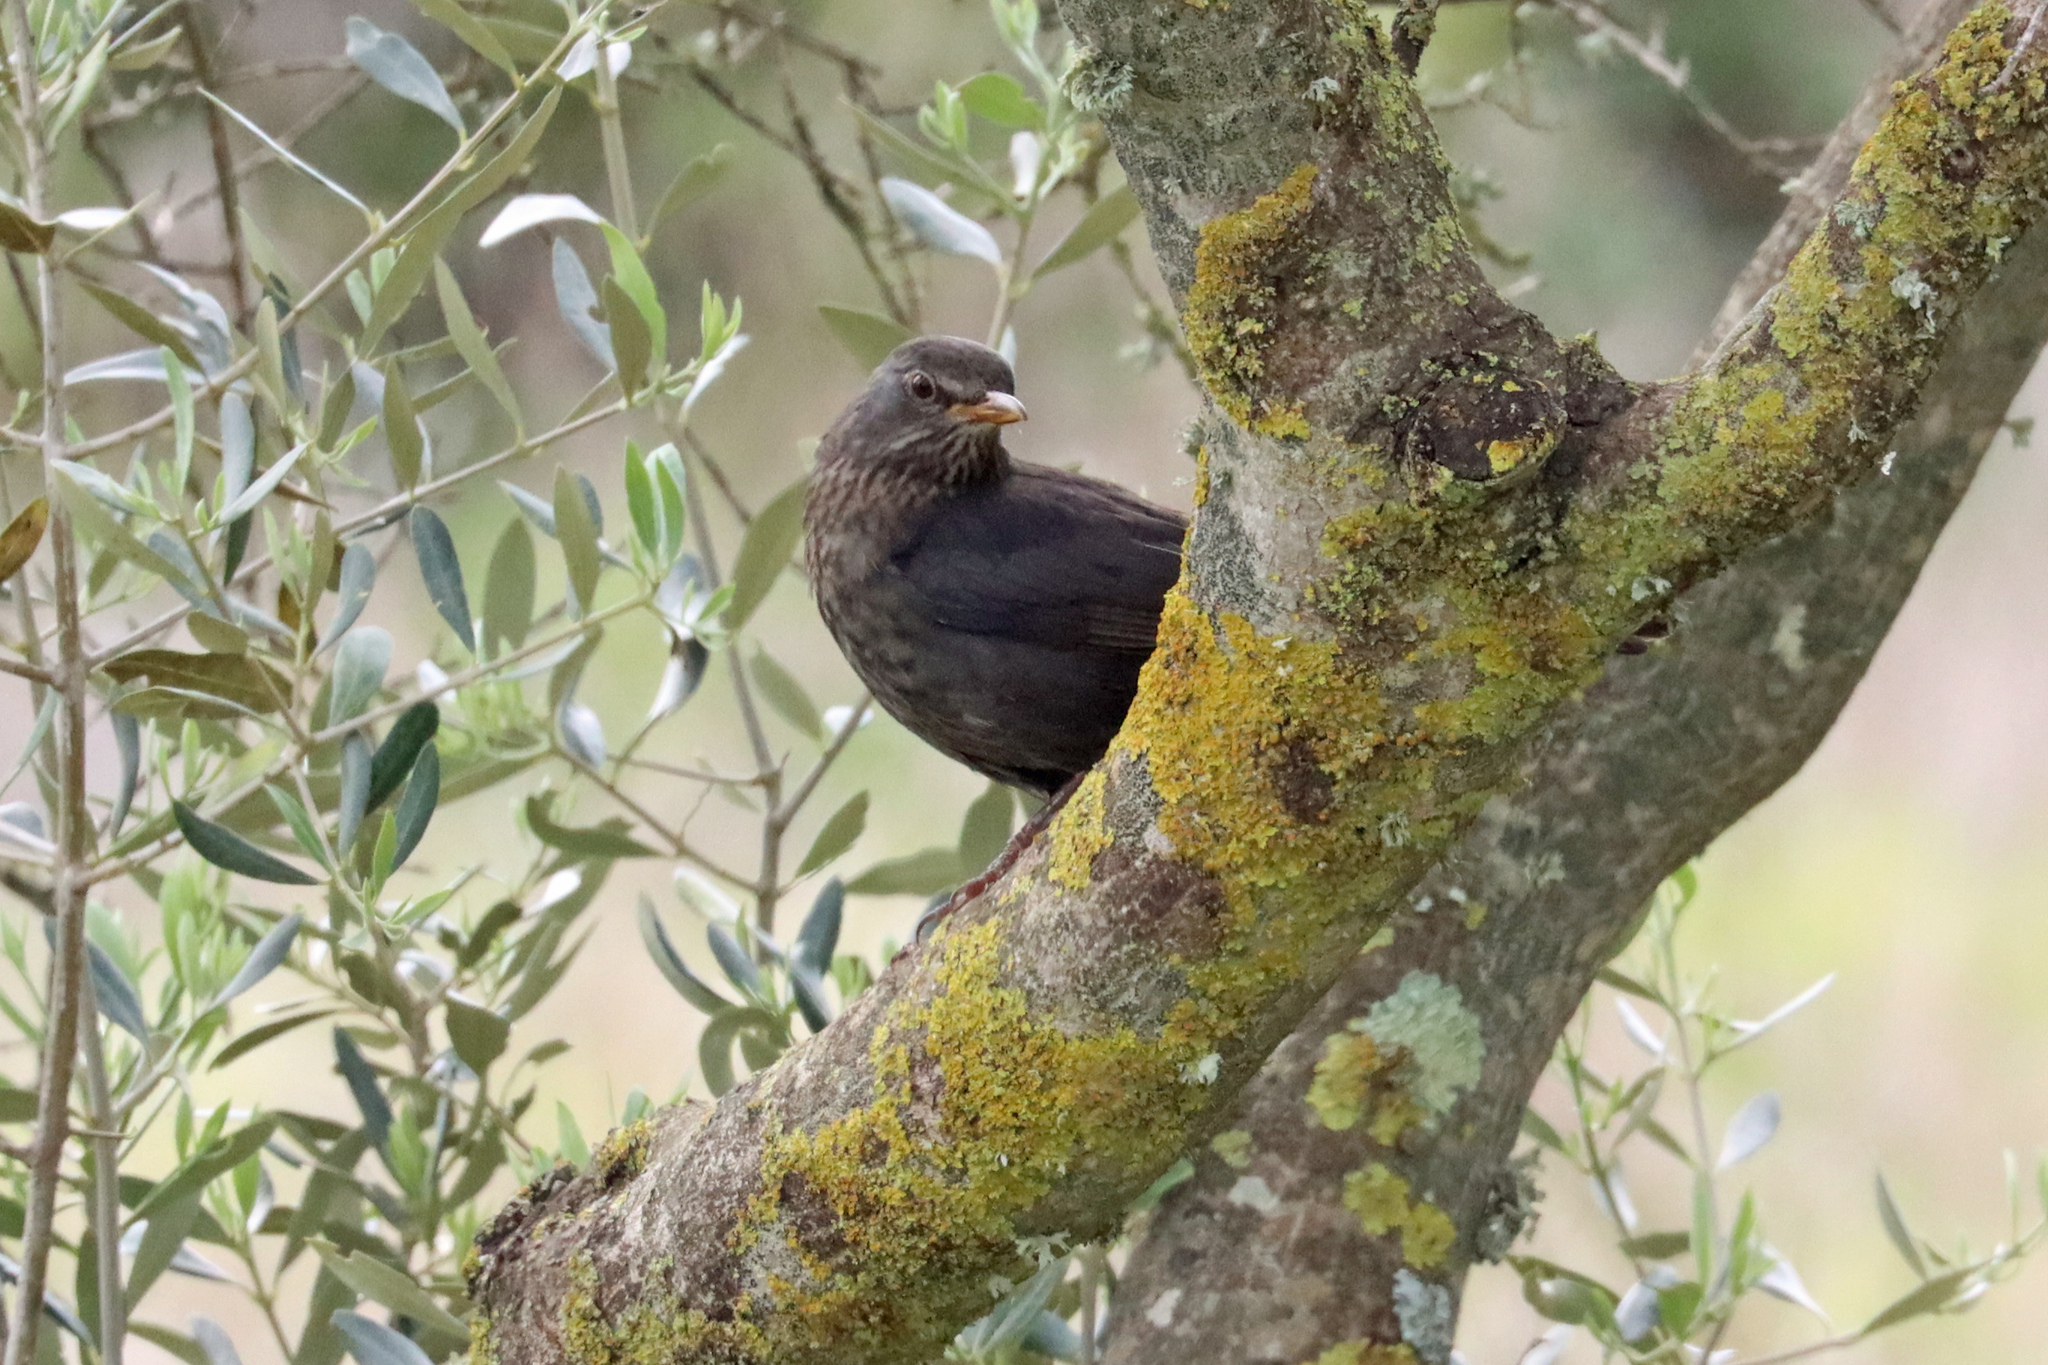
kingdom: Animalia
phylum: Chordata
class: Aves
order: Passeriformes
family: Turdidae
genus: Turdus
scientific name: Turdus merula
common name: Common blackbird
